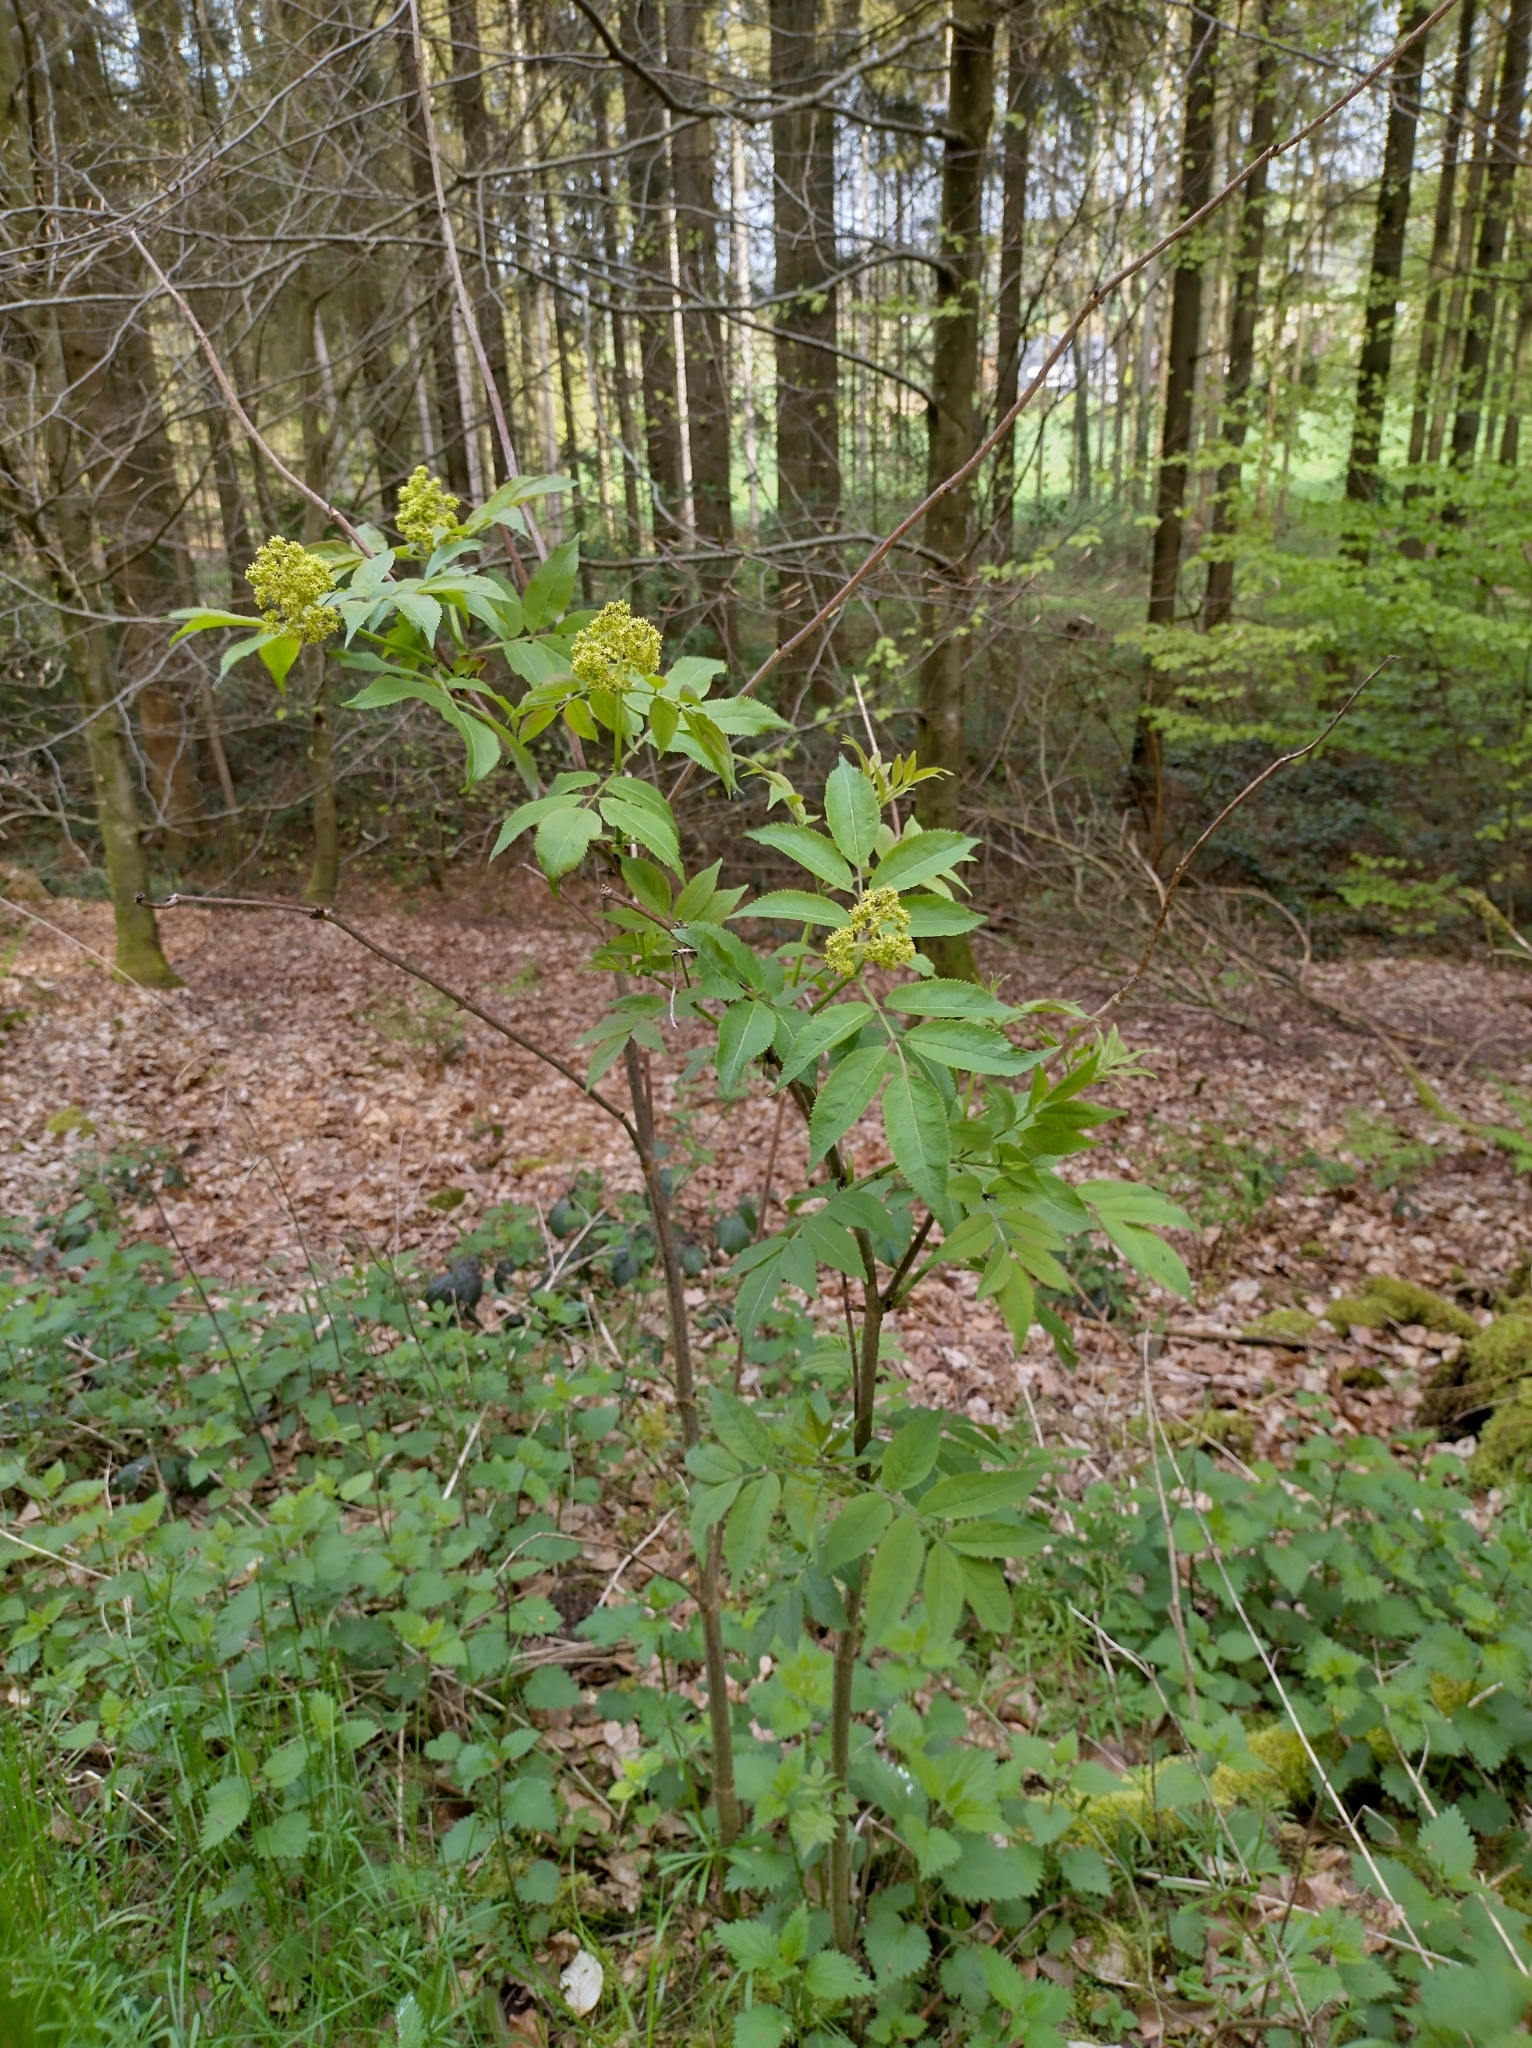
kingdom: Plantae
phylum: Tracheophyta
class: Magnoliopsida
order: Dipsacales
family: Viburnaceae
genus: Sambucus
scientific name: Sambucus racemosa
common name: Red-berried elder
